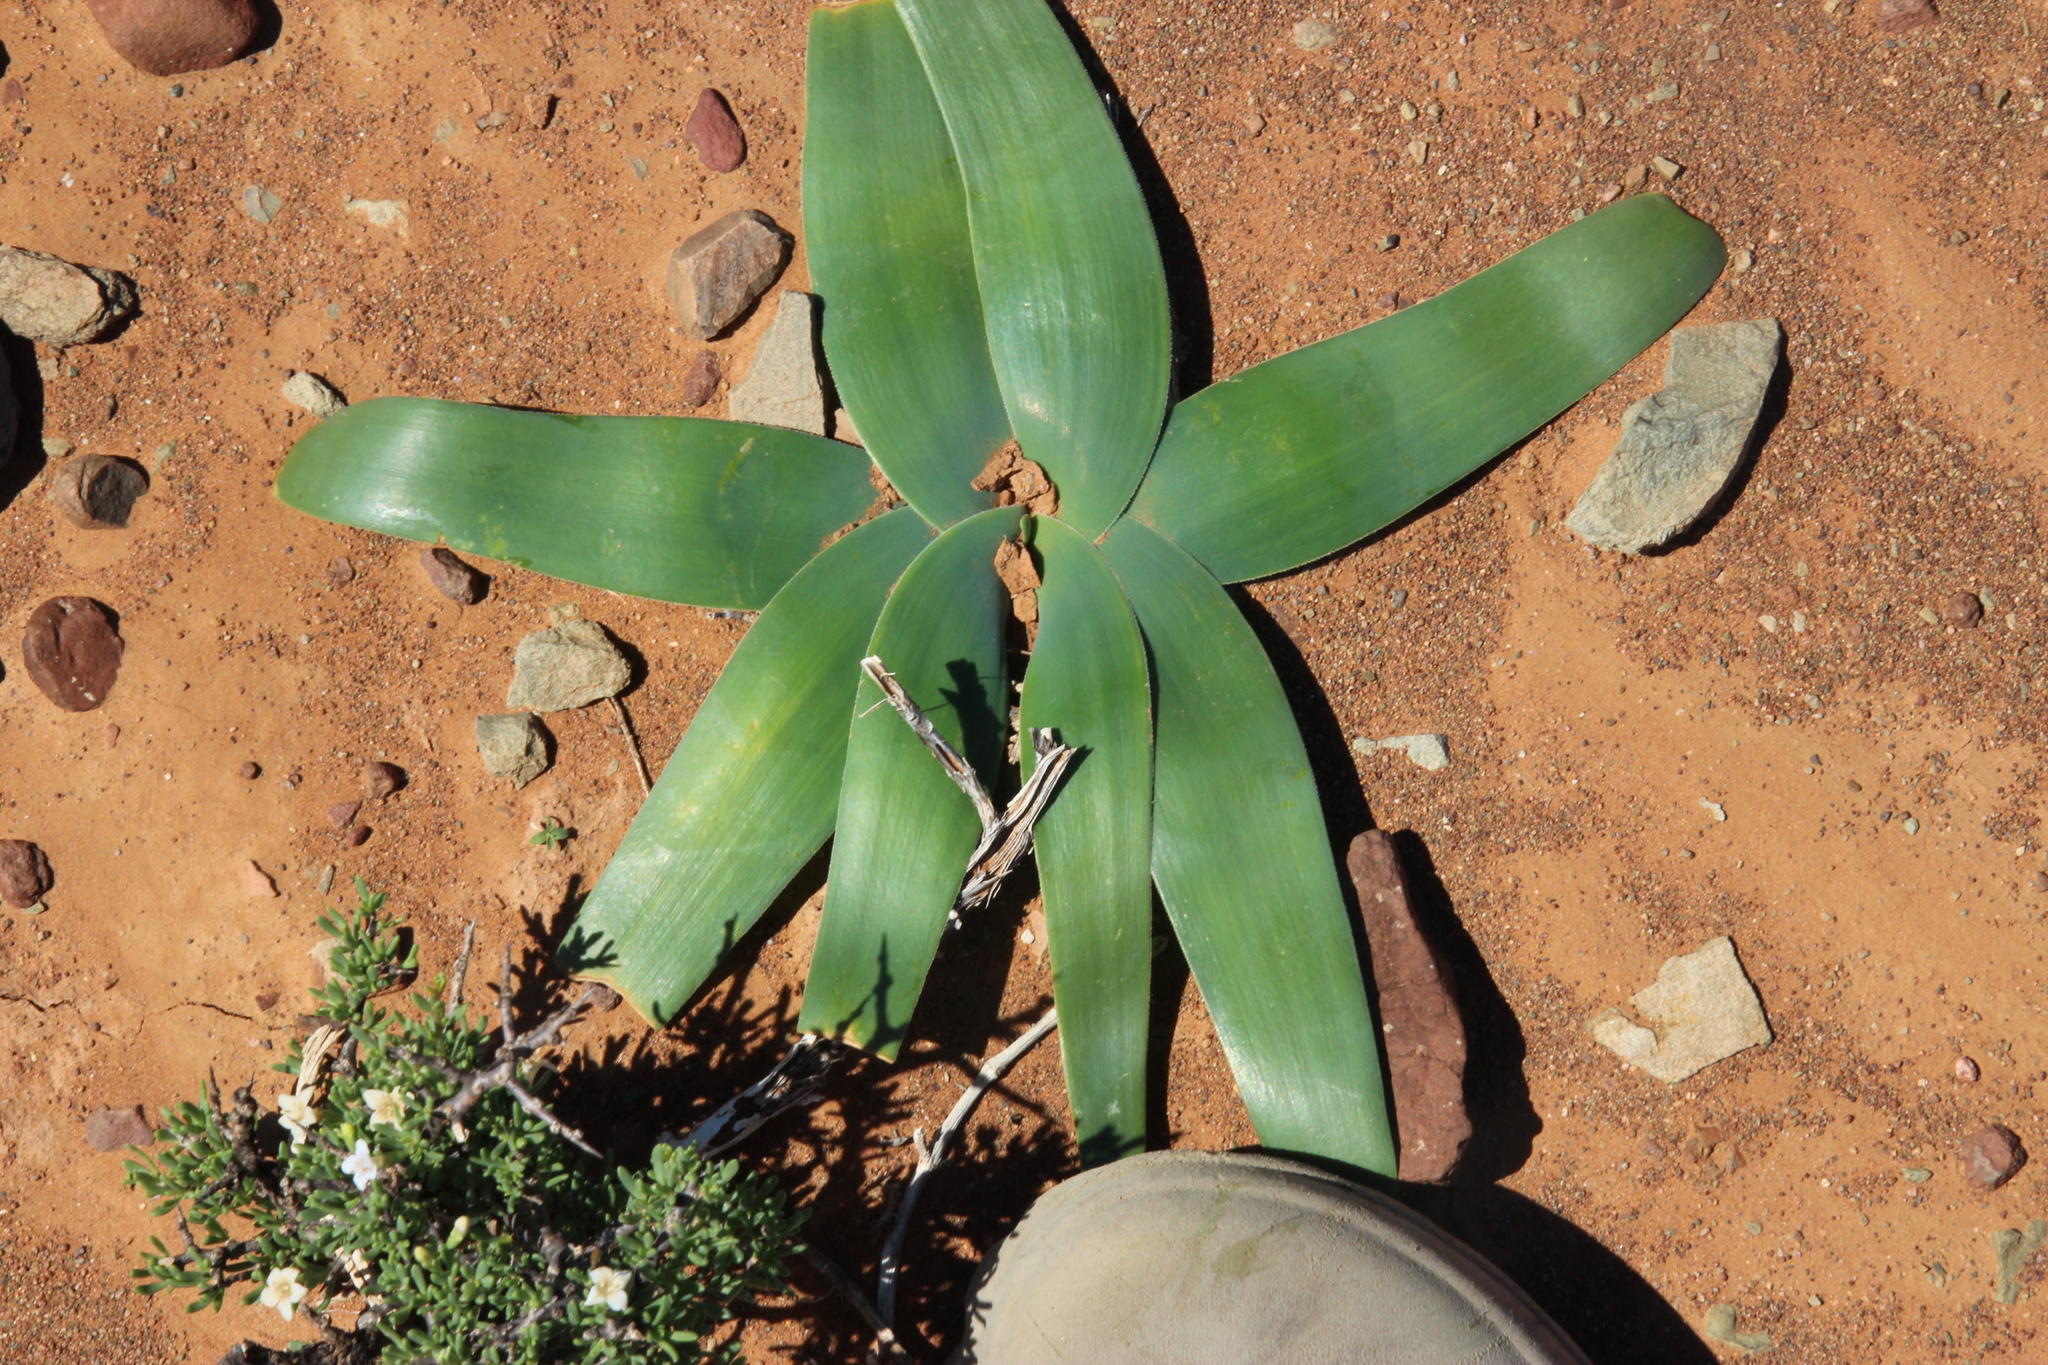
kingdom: Plantae
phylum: Tracheophyta
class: Liliopsida
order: Asparagales
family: Amaryllidaceae
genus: Ammocharis
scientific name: Ammocharis coranica
